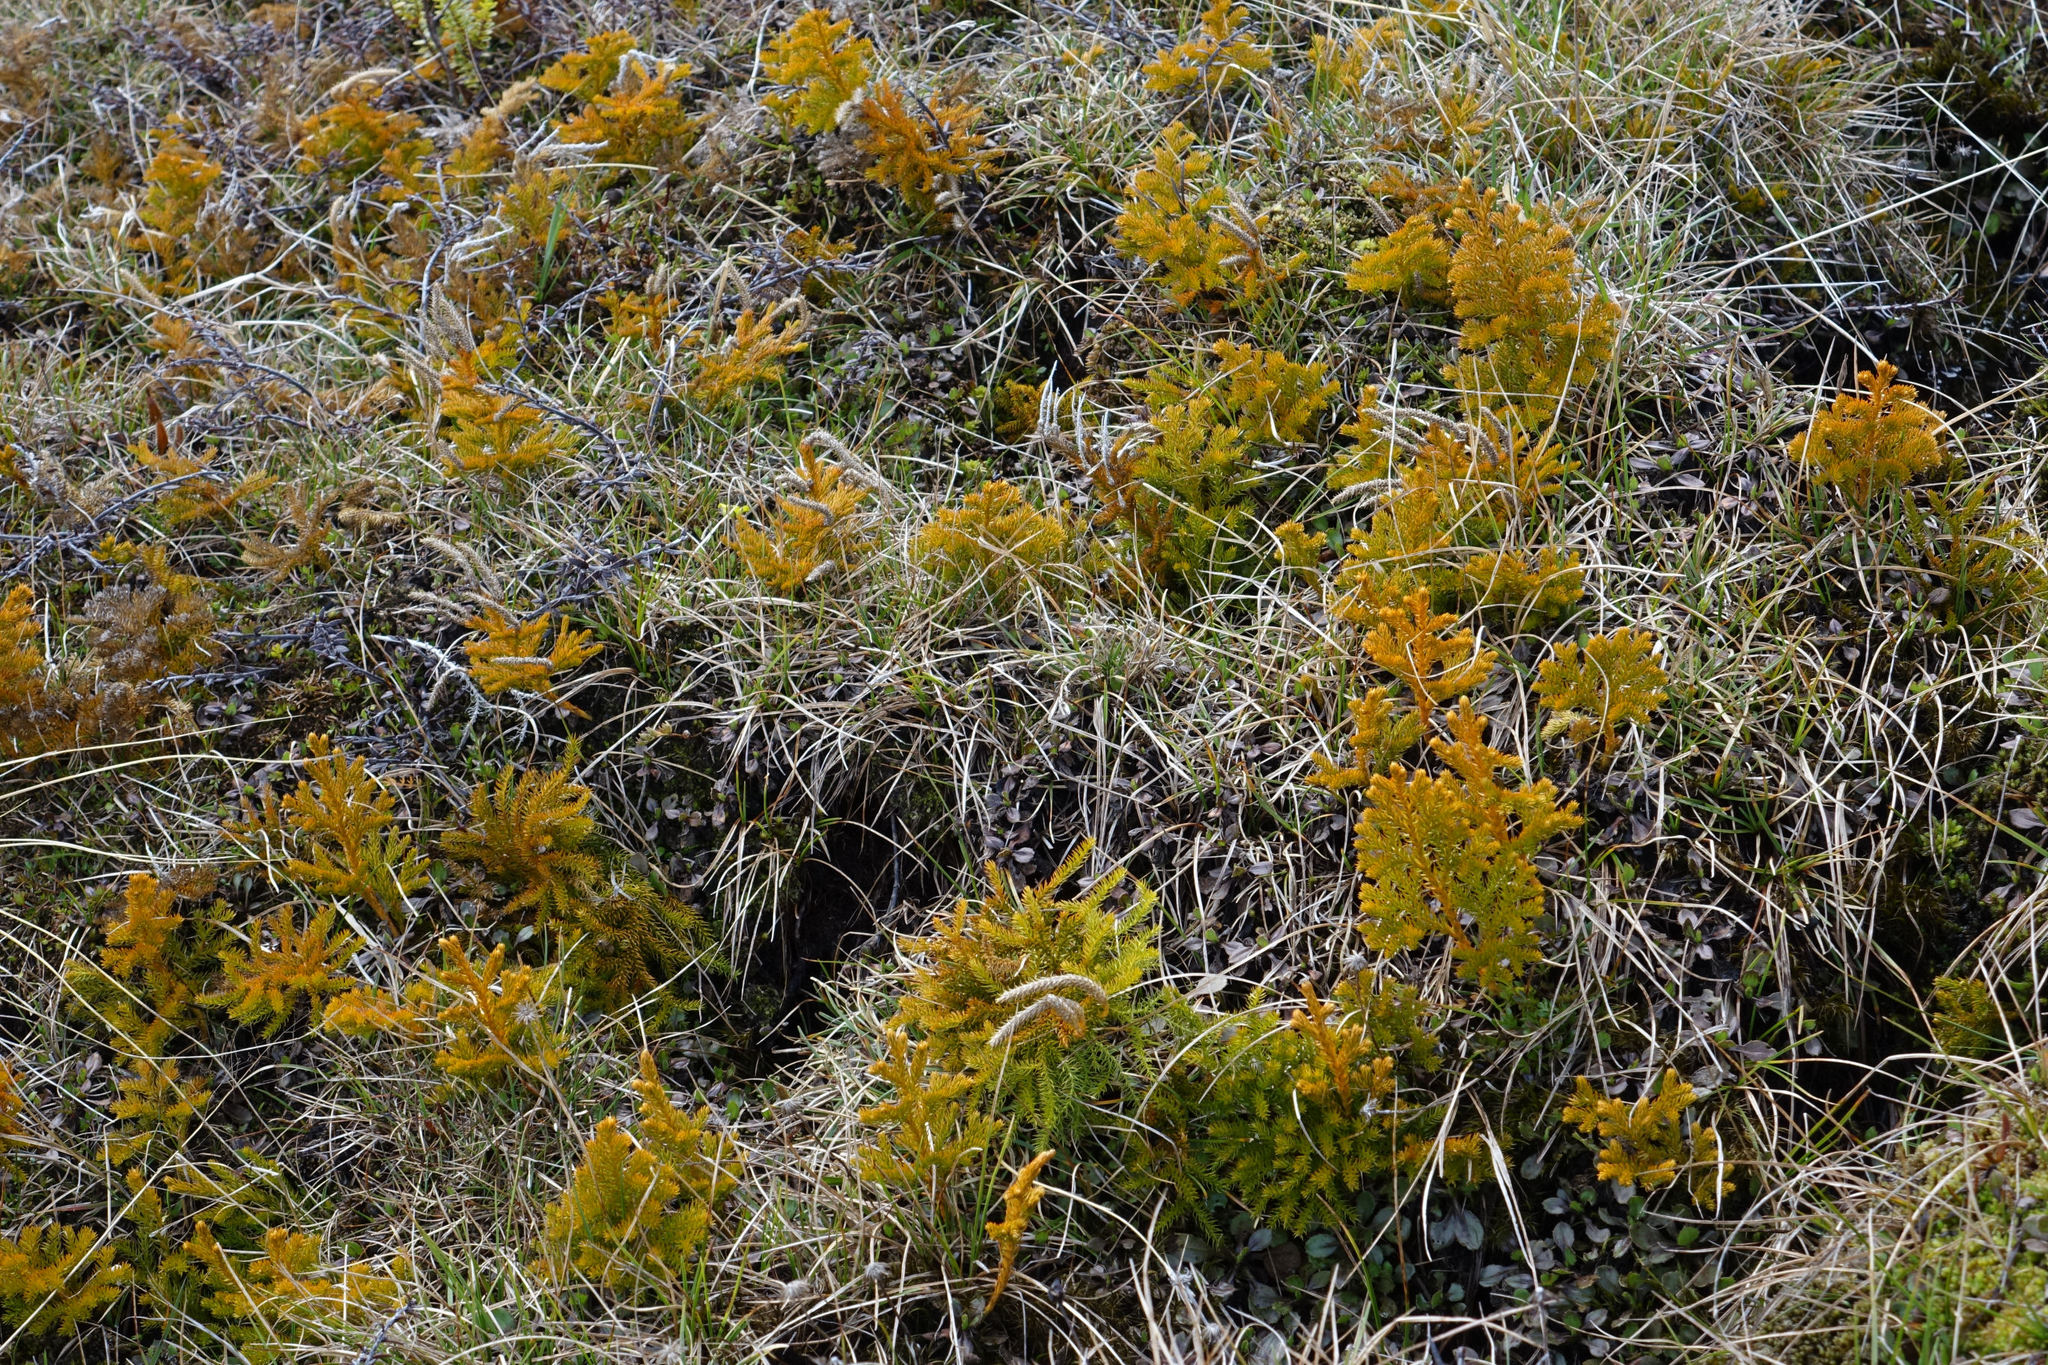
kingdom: Plantae
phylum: Tracheophyta
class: Lycopodiopsida
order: Lycopodiales
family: Lycopodiaceae
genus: Austrolycopodium
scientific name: Austrolycopodium fastigiatum
